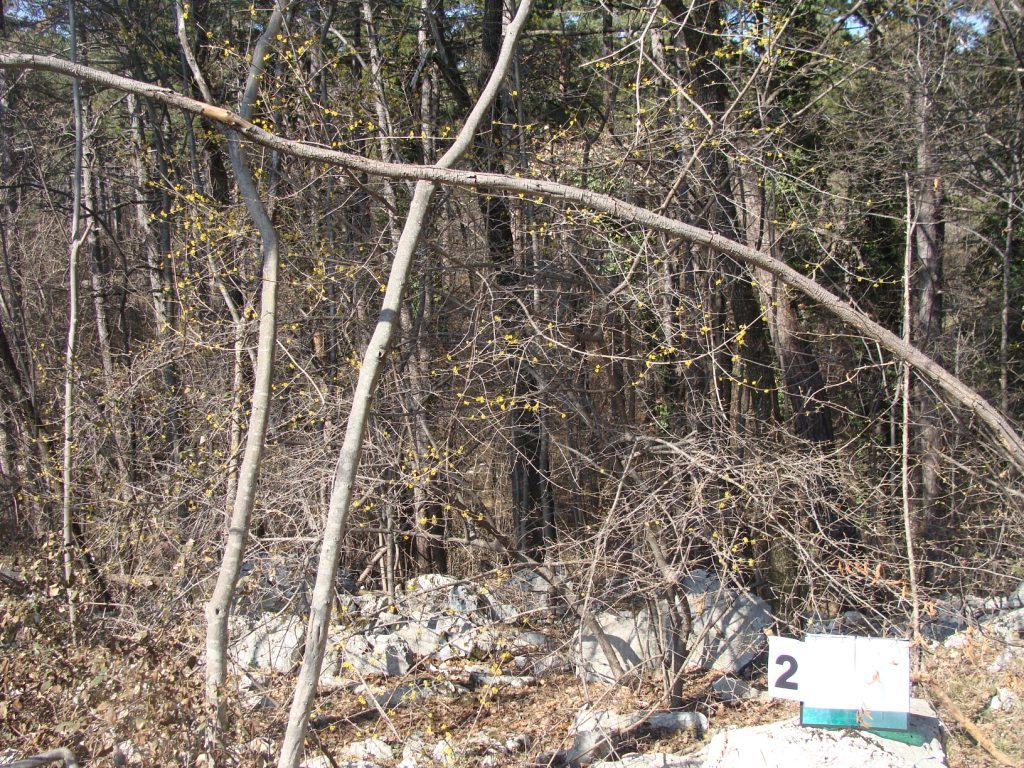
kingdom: Plantae
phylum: Tracheophyta
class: Magnoliopsida
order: Cornales
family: Cornaceae
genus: Cornus
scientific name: Cornus mas
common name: Cornelian-cherry
